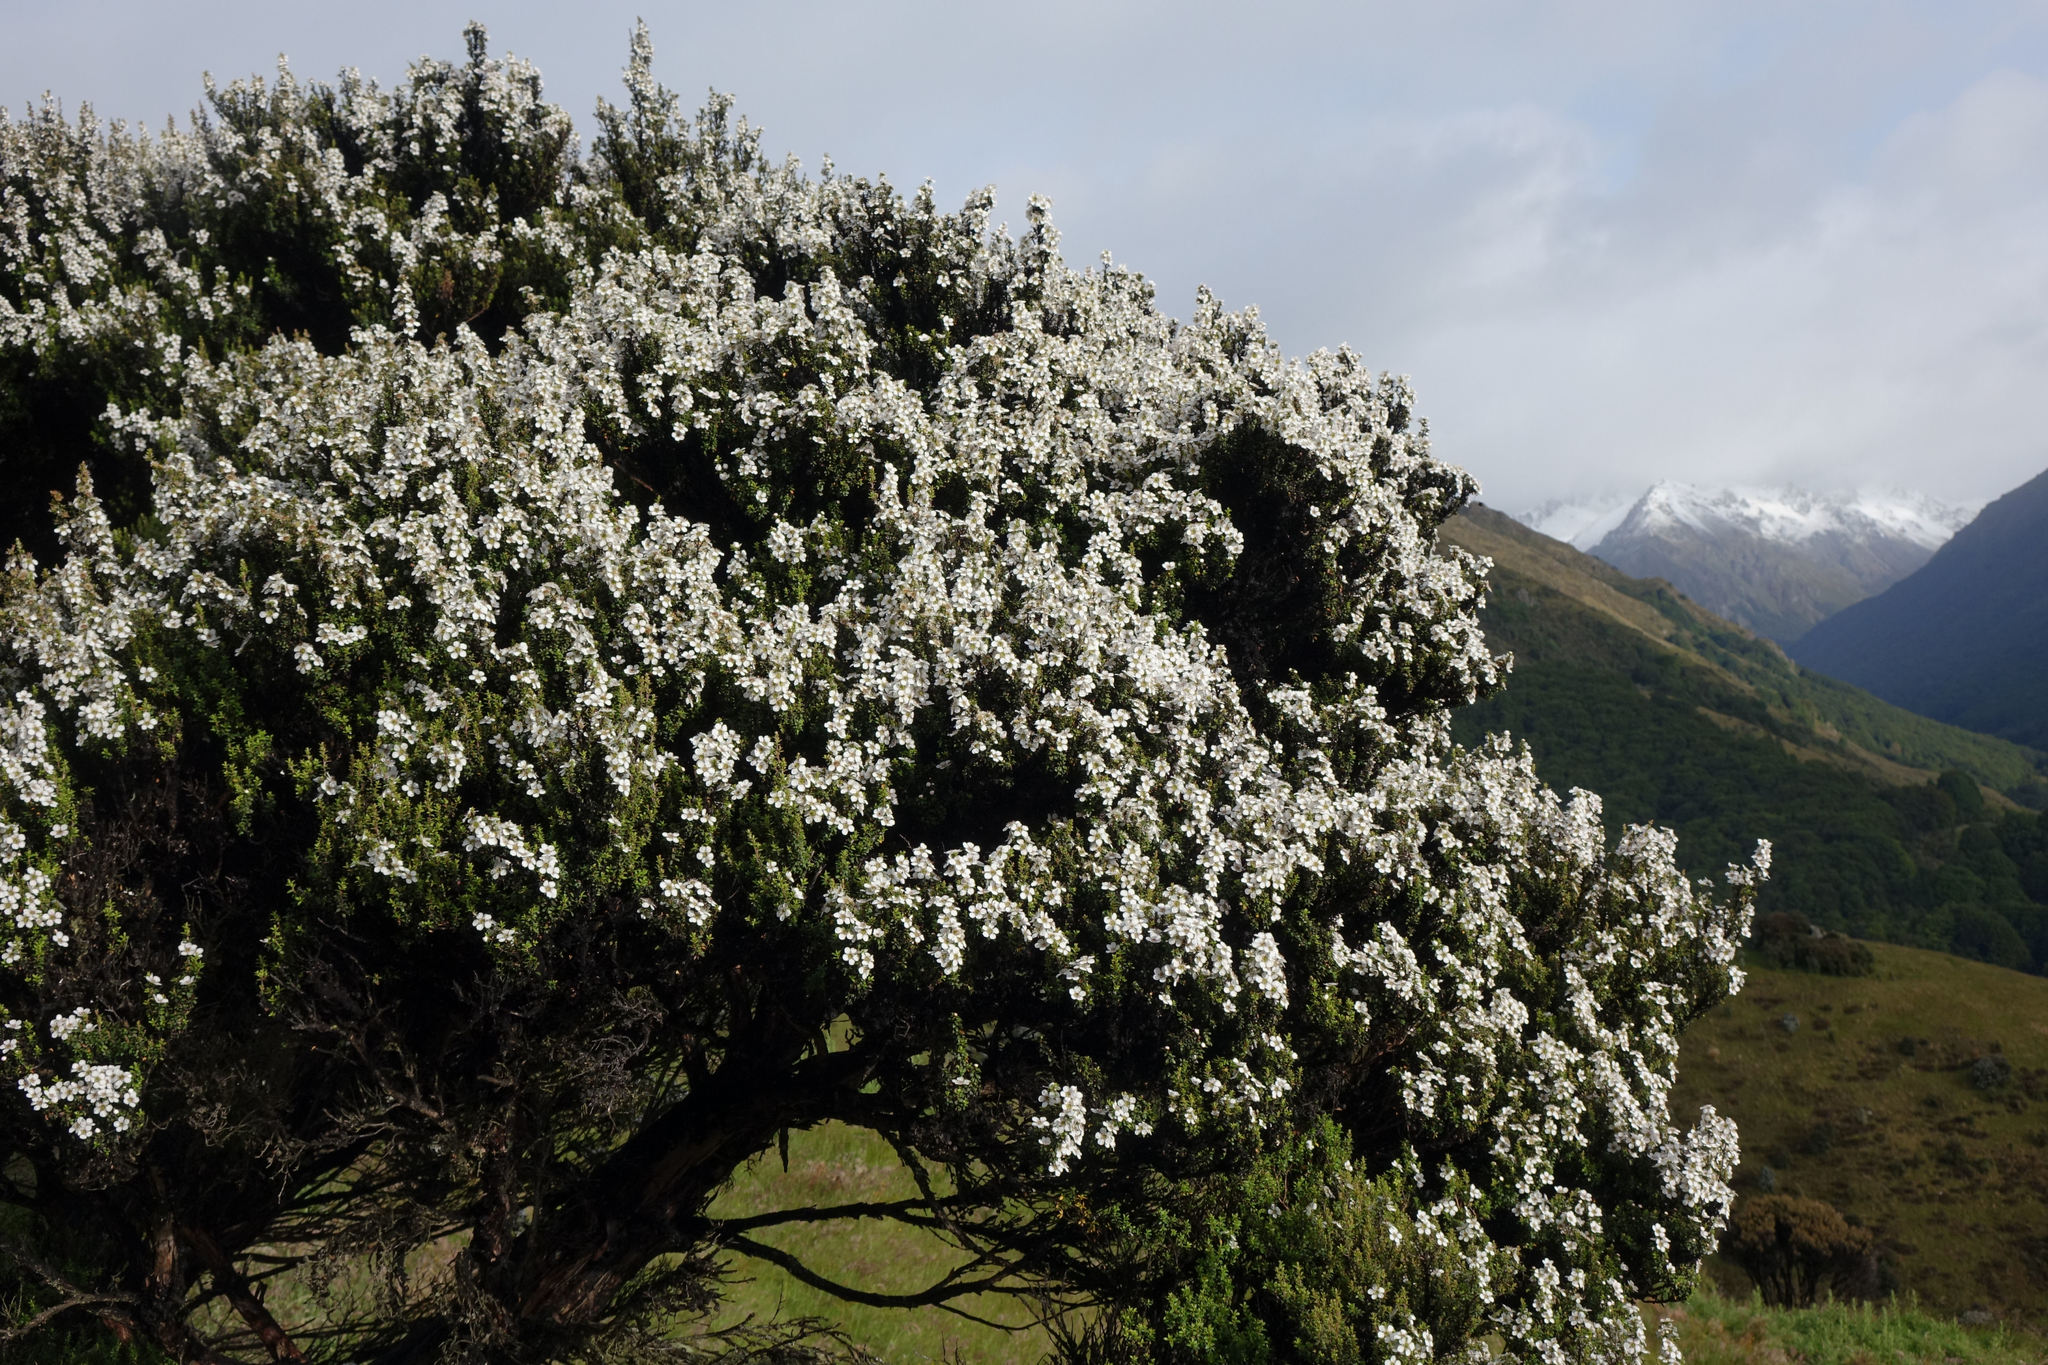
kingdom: Plantae
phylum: Tracheophyta
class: Magnoliopsida
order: Myrtales
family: Myrtaceae
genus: Leptospermum
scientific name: Leptospermum scoparium
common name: Broom tea-tree
